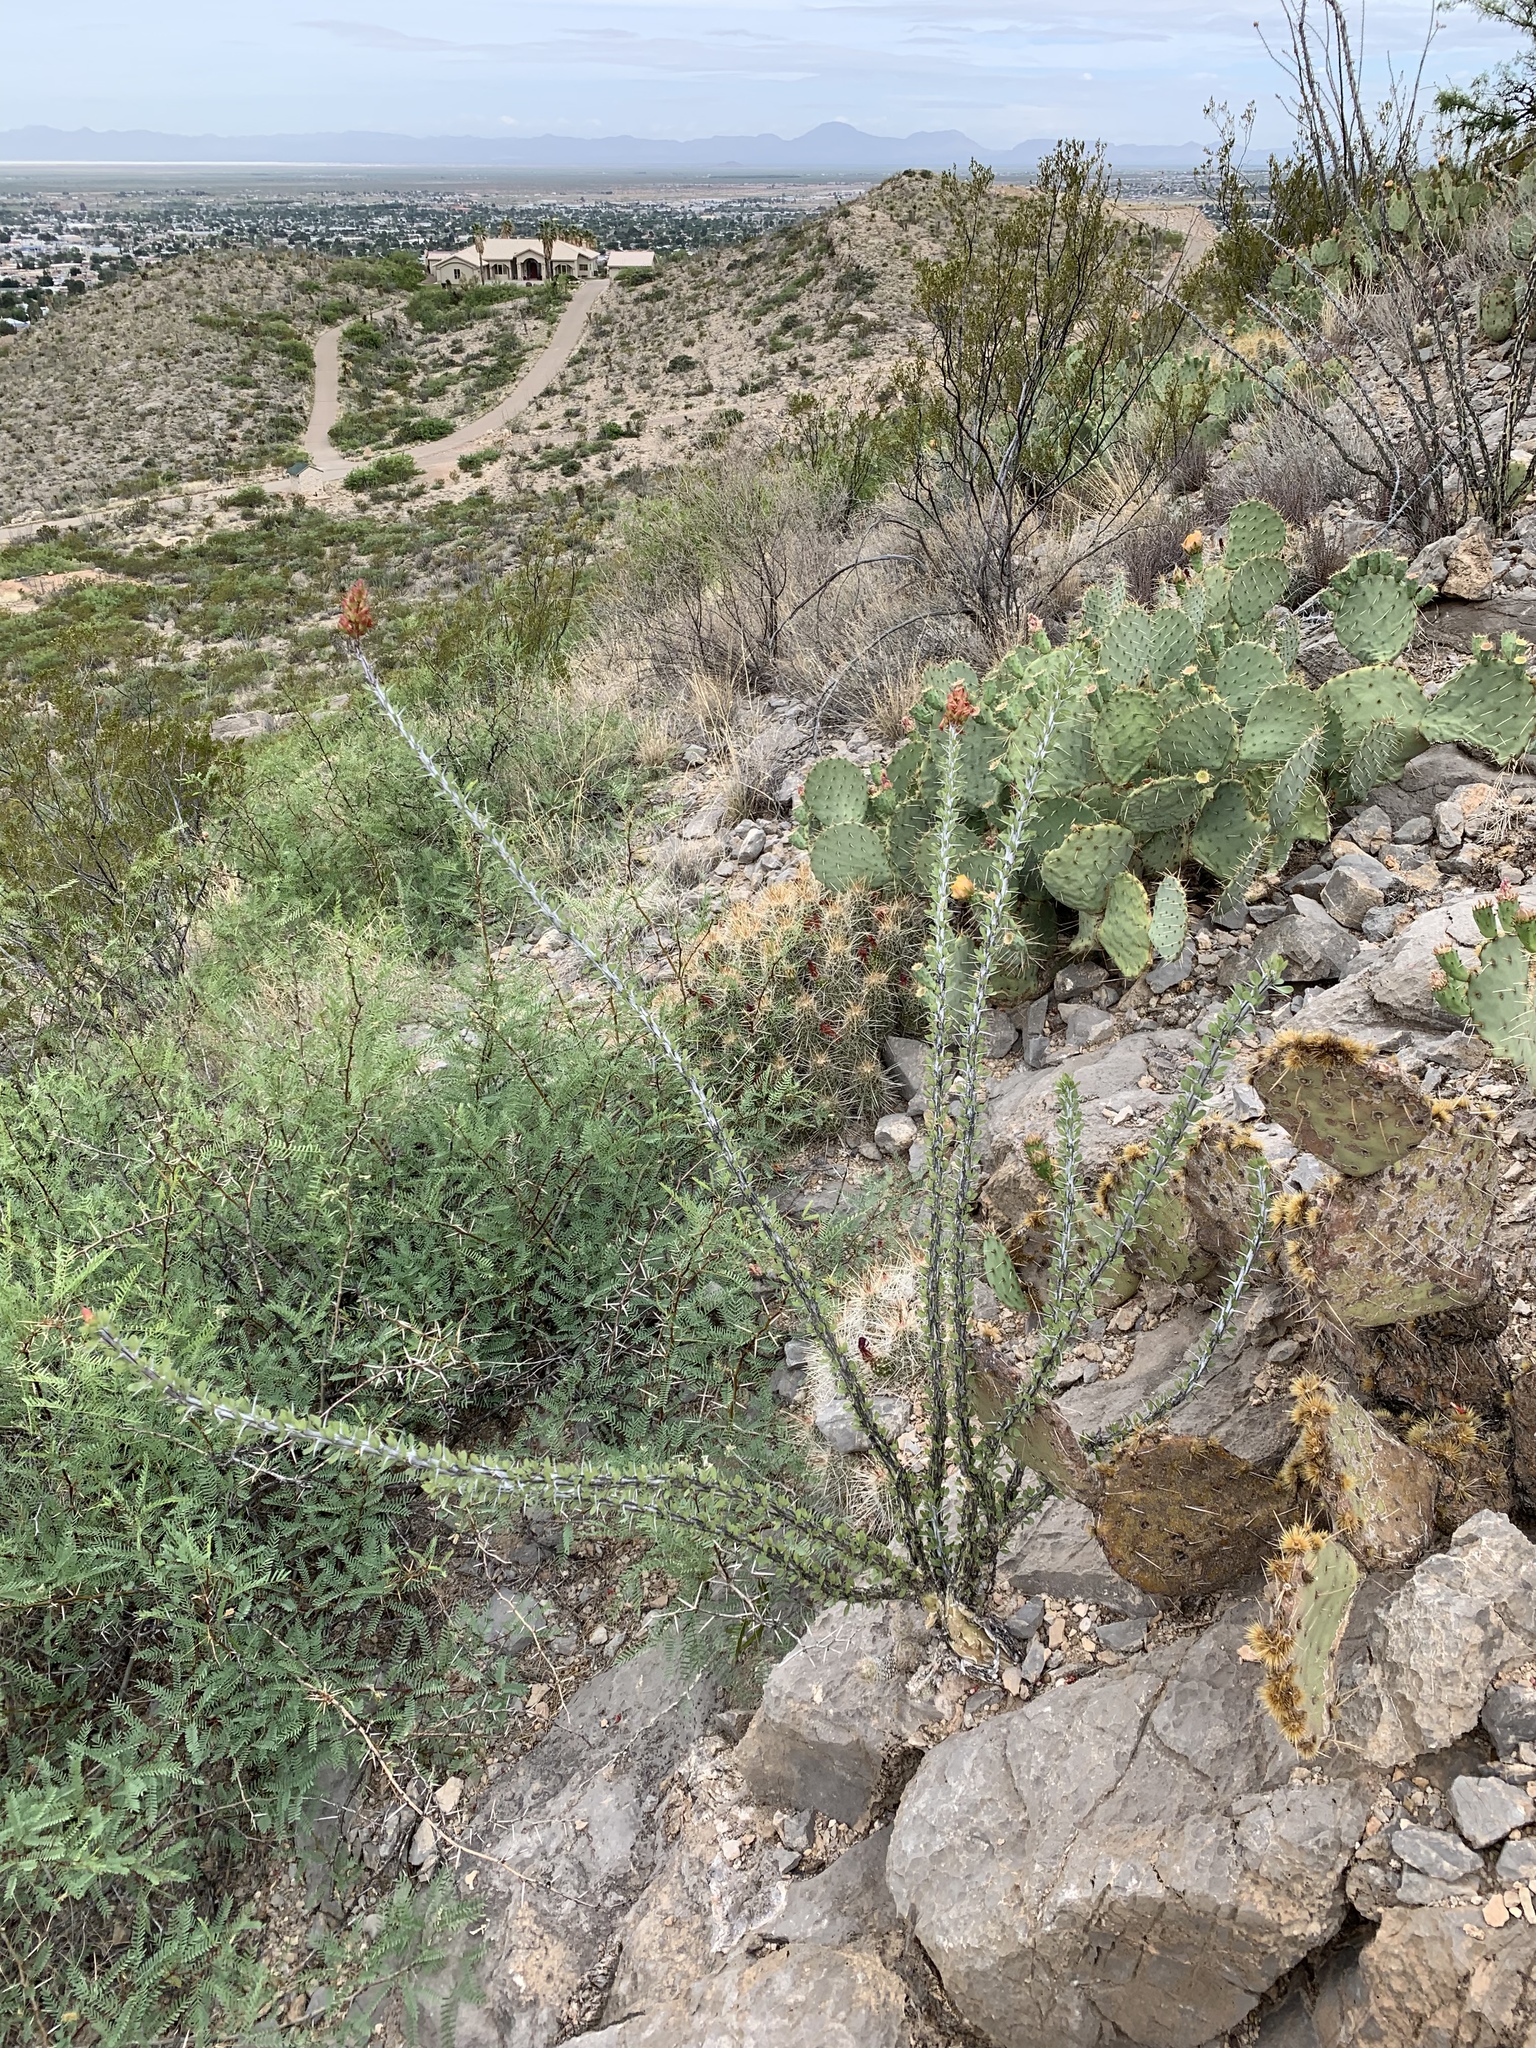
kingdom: Plantae
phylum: Tracheophyta
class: Magnoliopsida
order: Ericales
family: Fouquieriaceae
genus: Fouquieria
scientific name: Fouquieria splendens
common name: Vine-cactus
